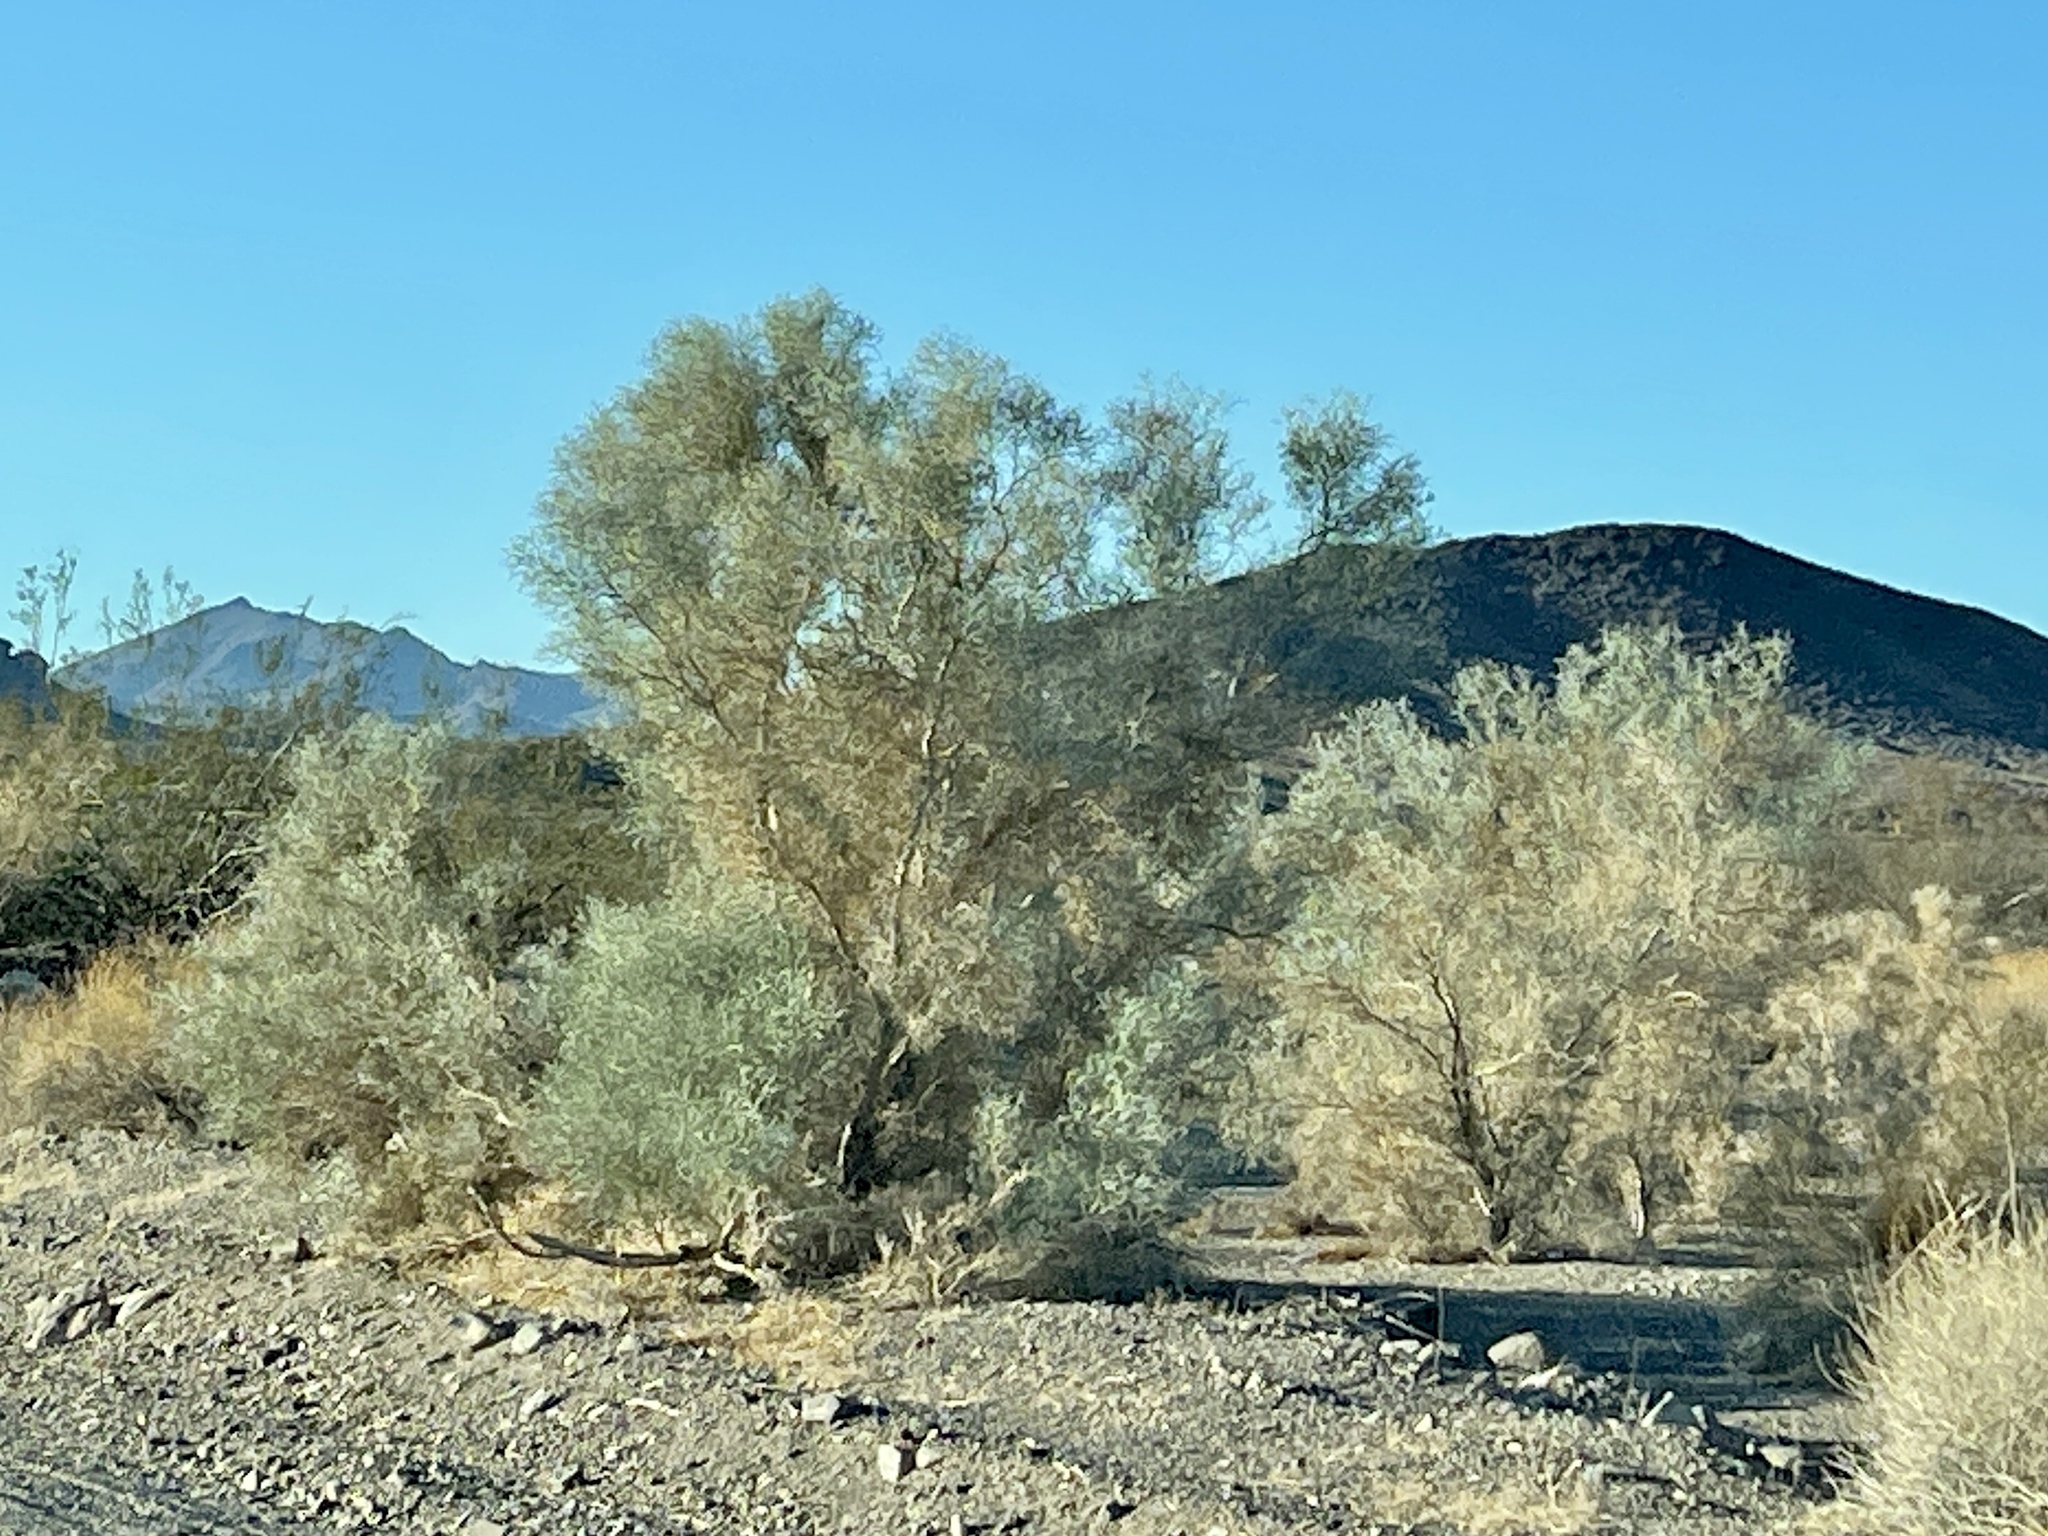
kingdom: Plantae
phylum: Tracheophyta
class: Magnoliopsida
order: Fabales
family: Fabaceae
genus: Psorothamnus
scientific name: Psorothamnus spinosus
